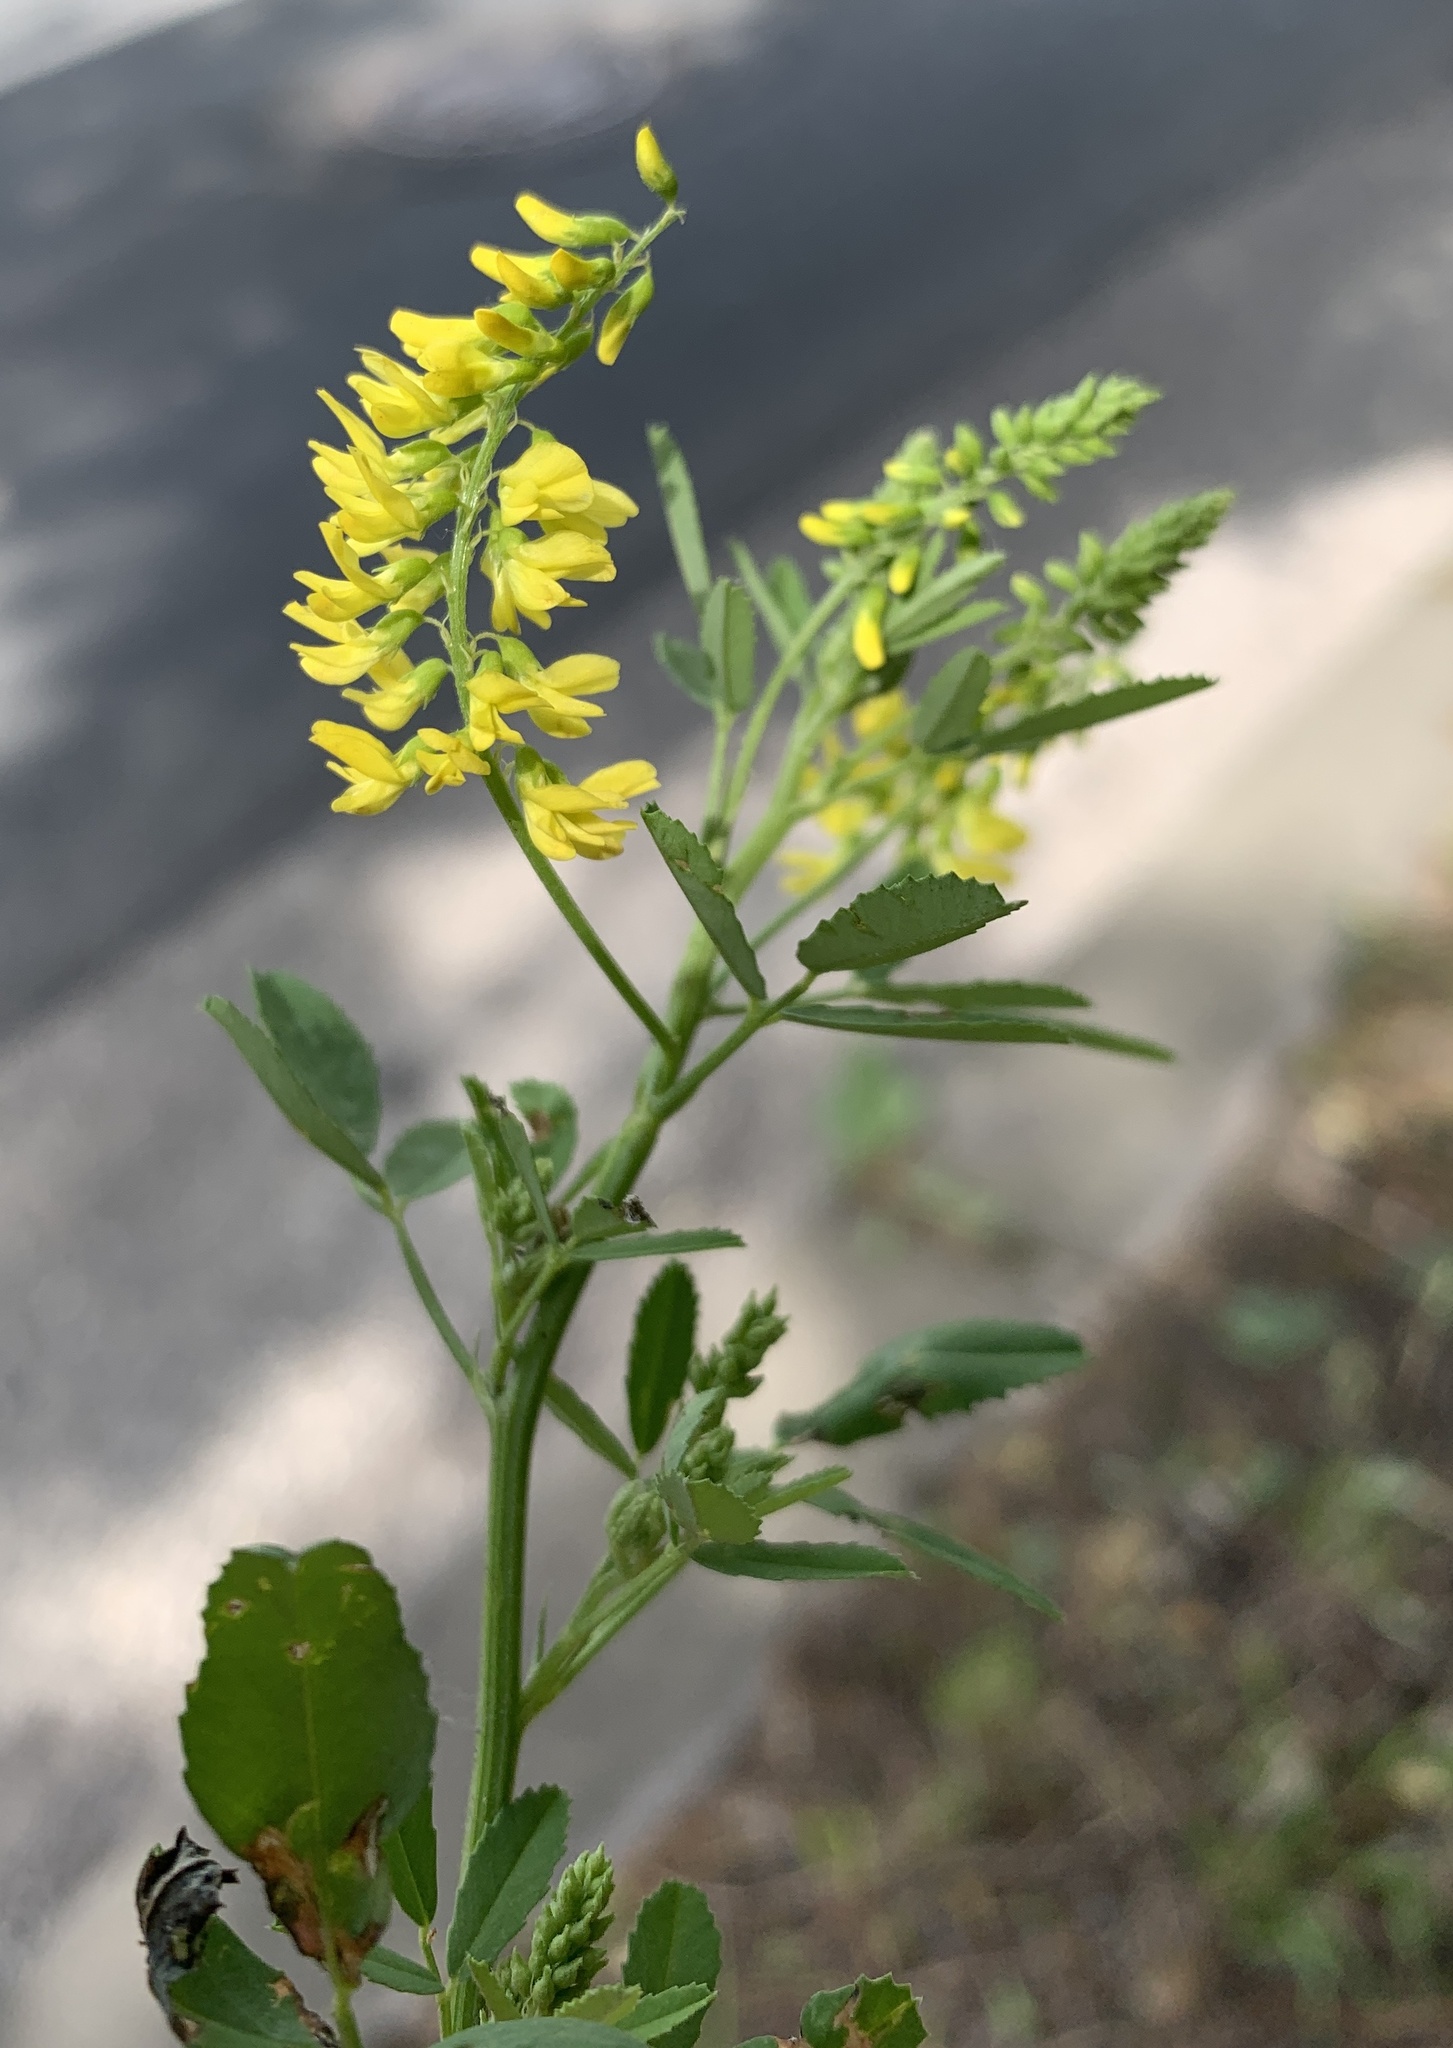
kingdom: Plantae
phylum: Tracheophyta
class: Magnoliopsida
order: Fabales
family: Fabaceae
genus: Melilotus
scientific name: Melilotus officinalis
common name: Sweetclover
